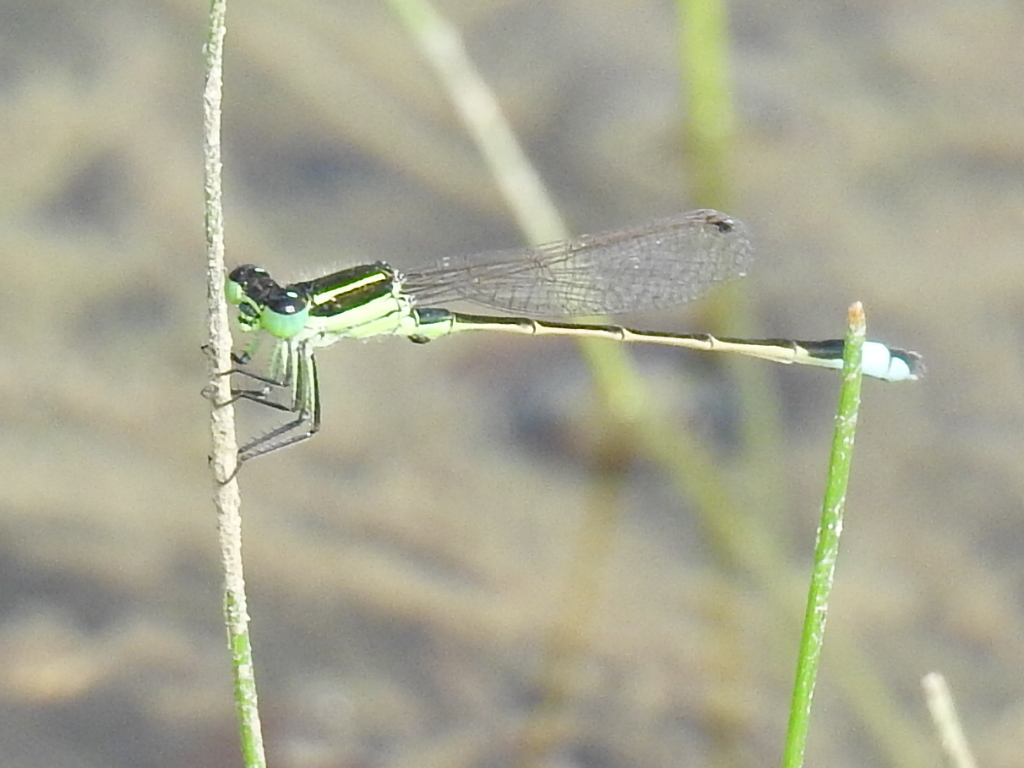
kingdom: Animalia
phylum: Arthropoda
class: Insecta
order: Odonata
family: Coenagrionidae
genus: Ischnura
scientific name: Ischnura ramburii
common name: Rambur's forktail
